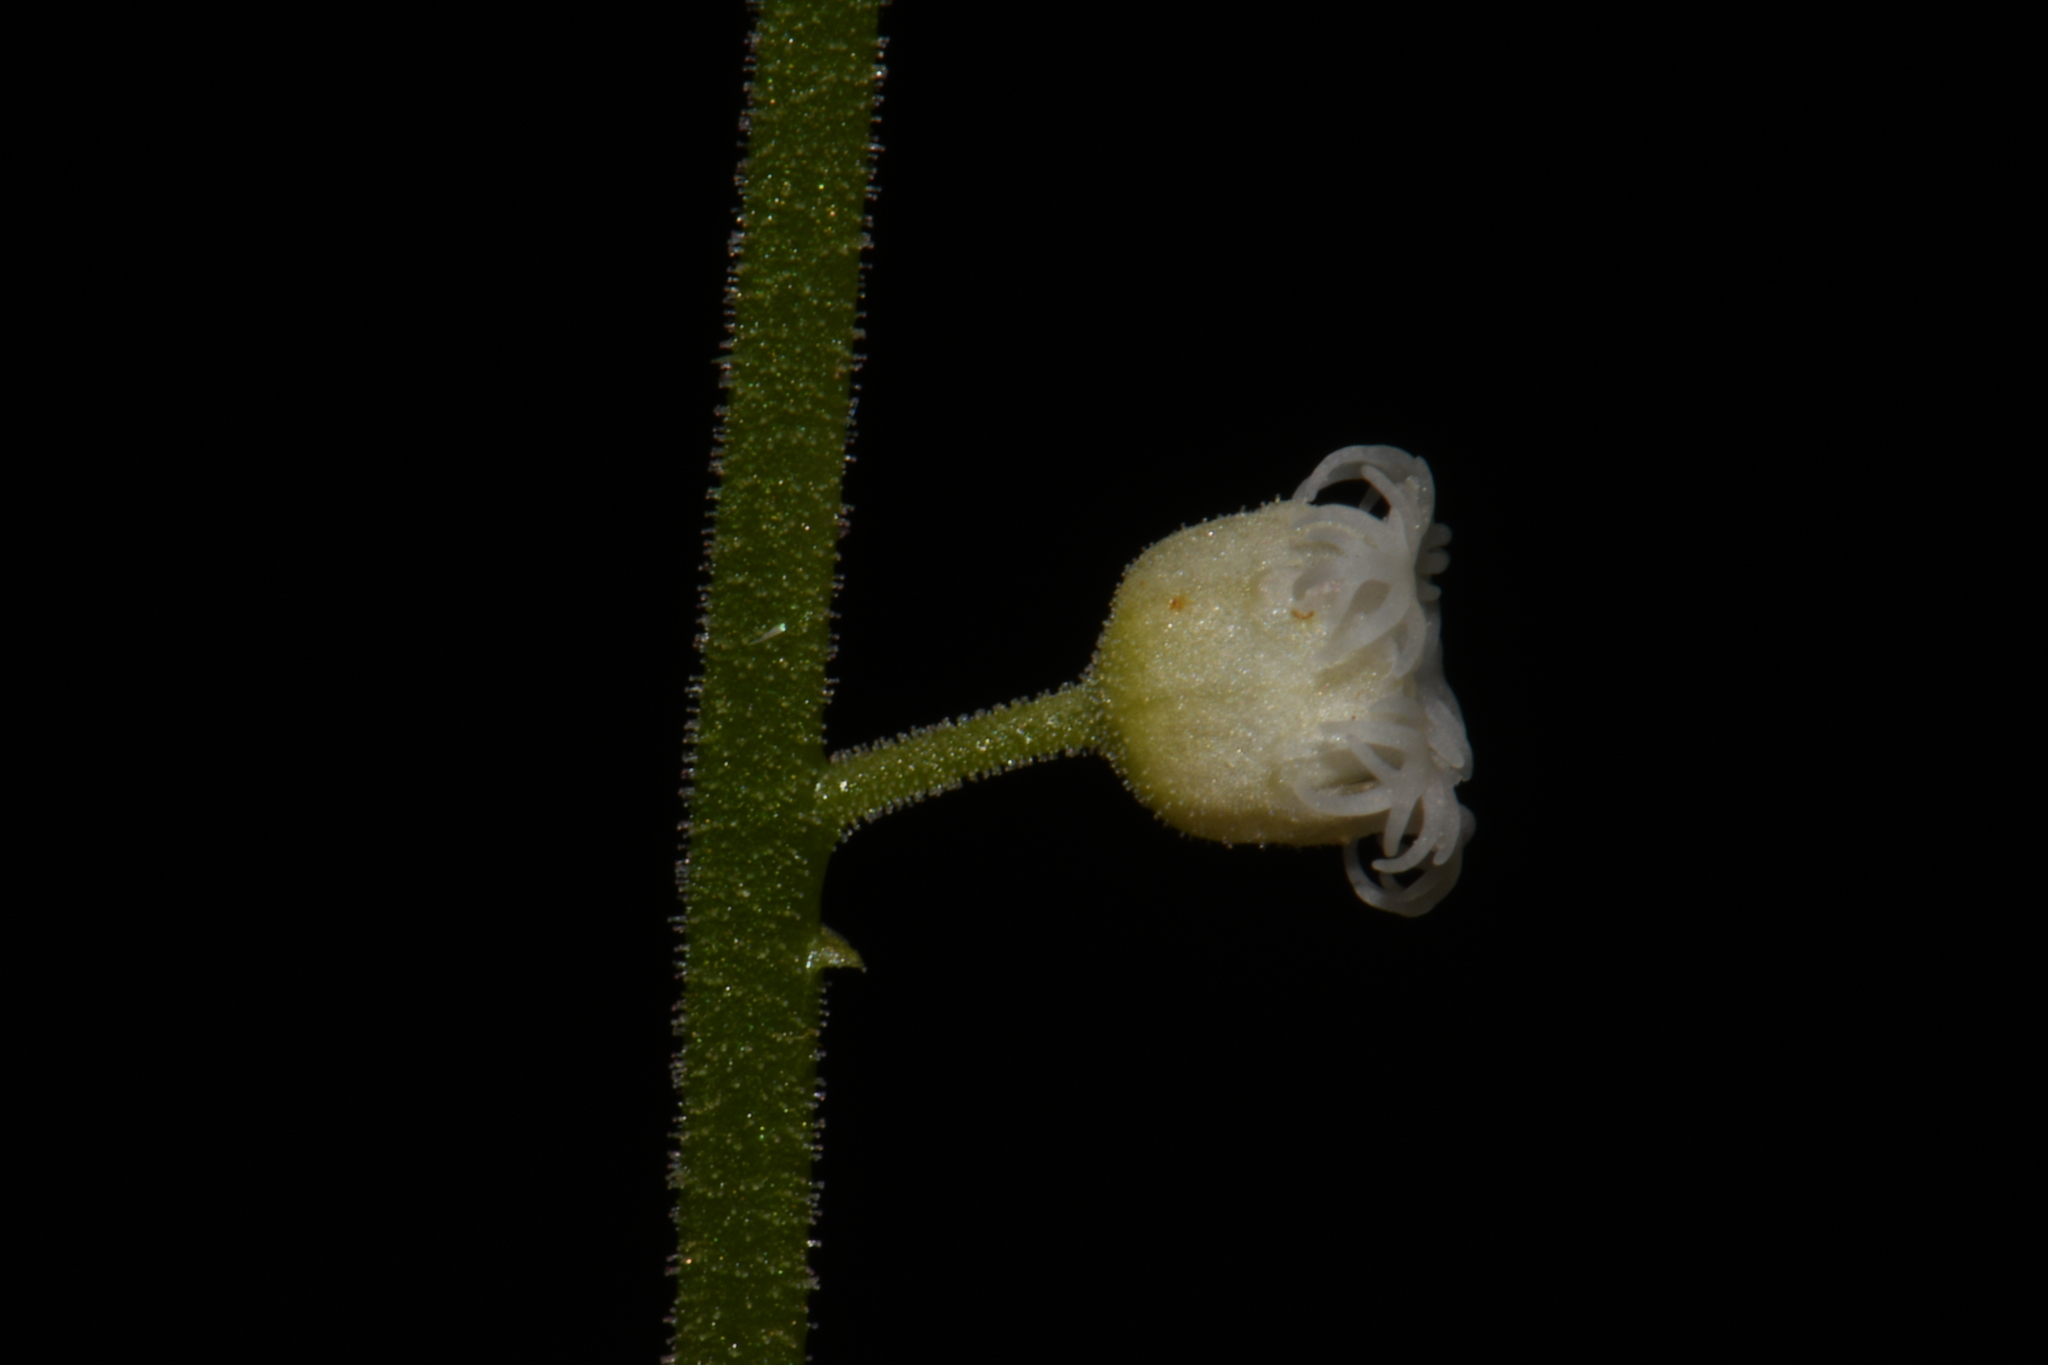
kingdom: Plantae
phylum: Tracheophyta
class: Magnoliopsida
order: Saxifragales
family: Saxifragaceae
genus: Mitella
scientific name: Mitella diphylla
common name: Coolwort
